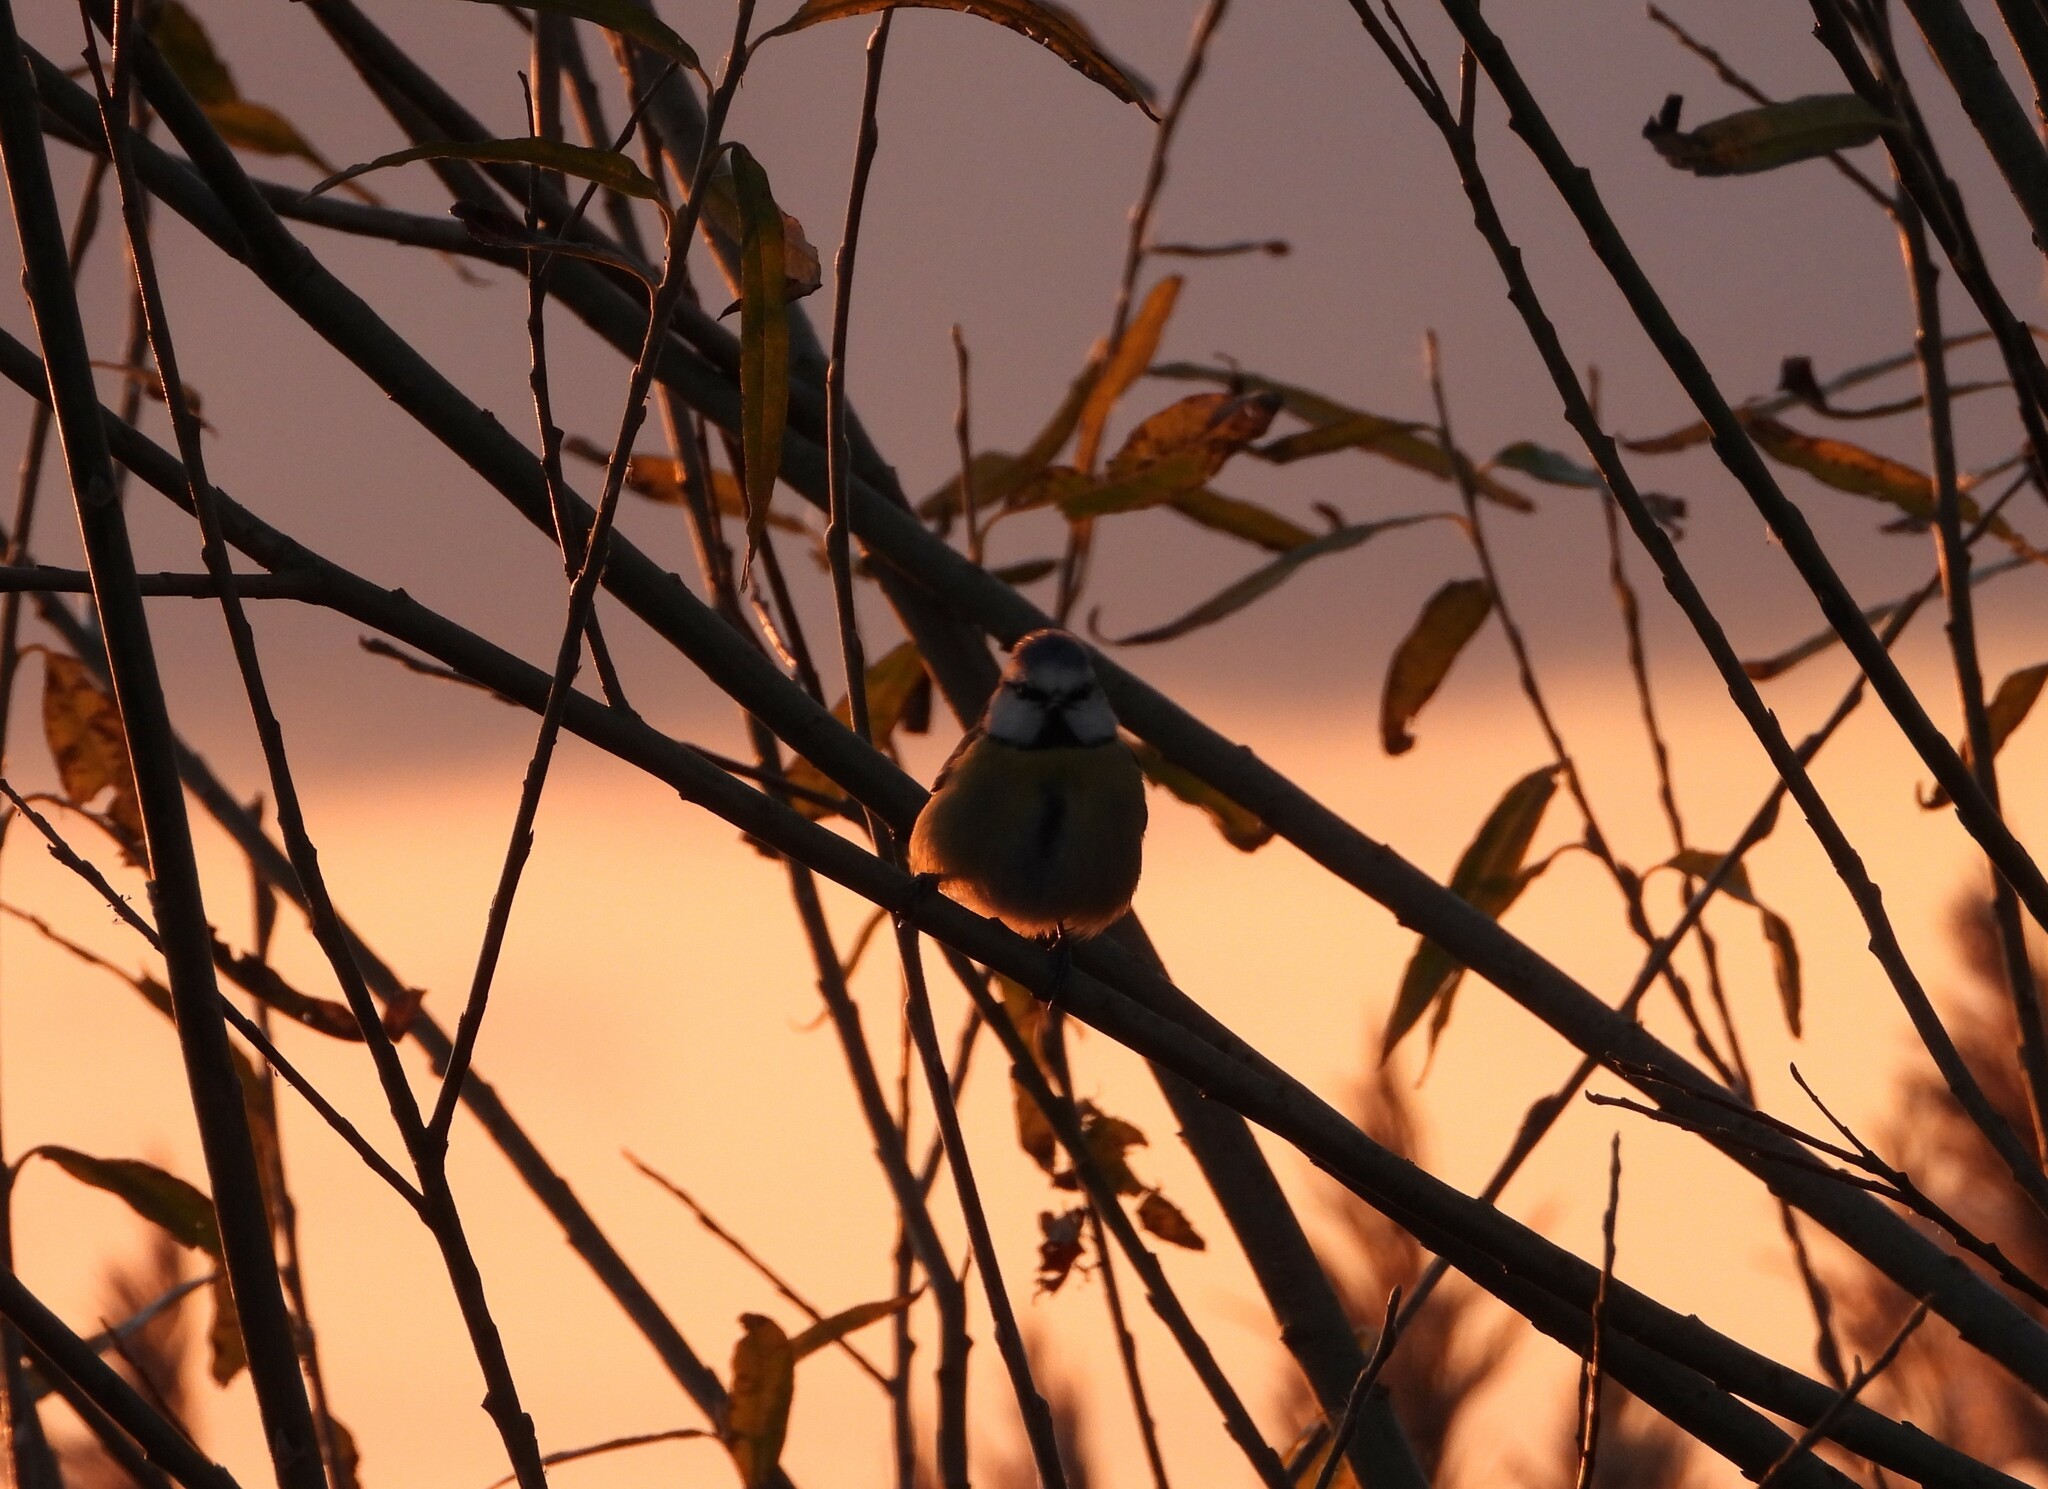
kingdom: Animalia
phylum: Chordata
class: Aves
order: Passeriformes
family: Paridae
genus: Cyanistes
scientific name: Cyanistes caeruleus
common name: Eurasian blue tit
